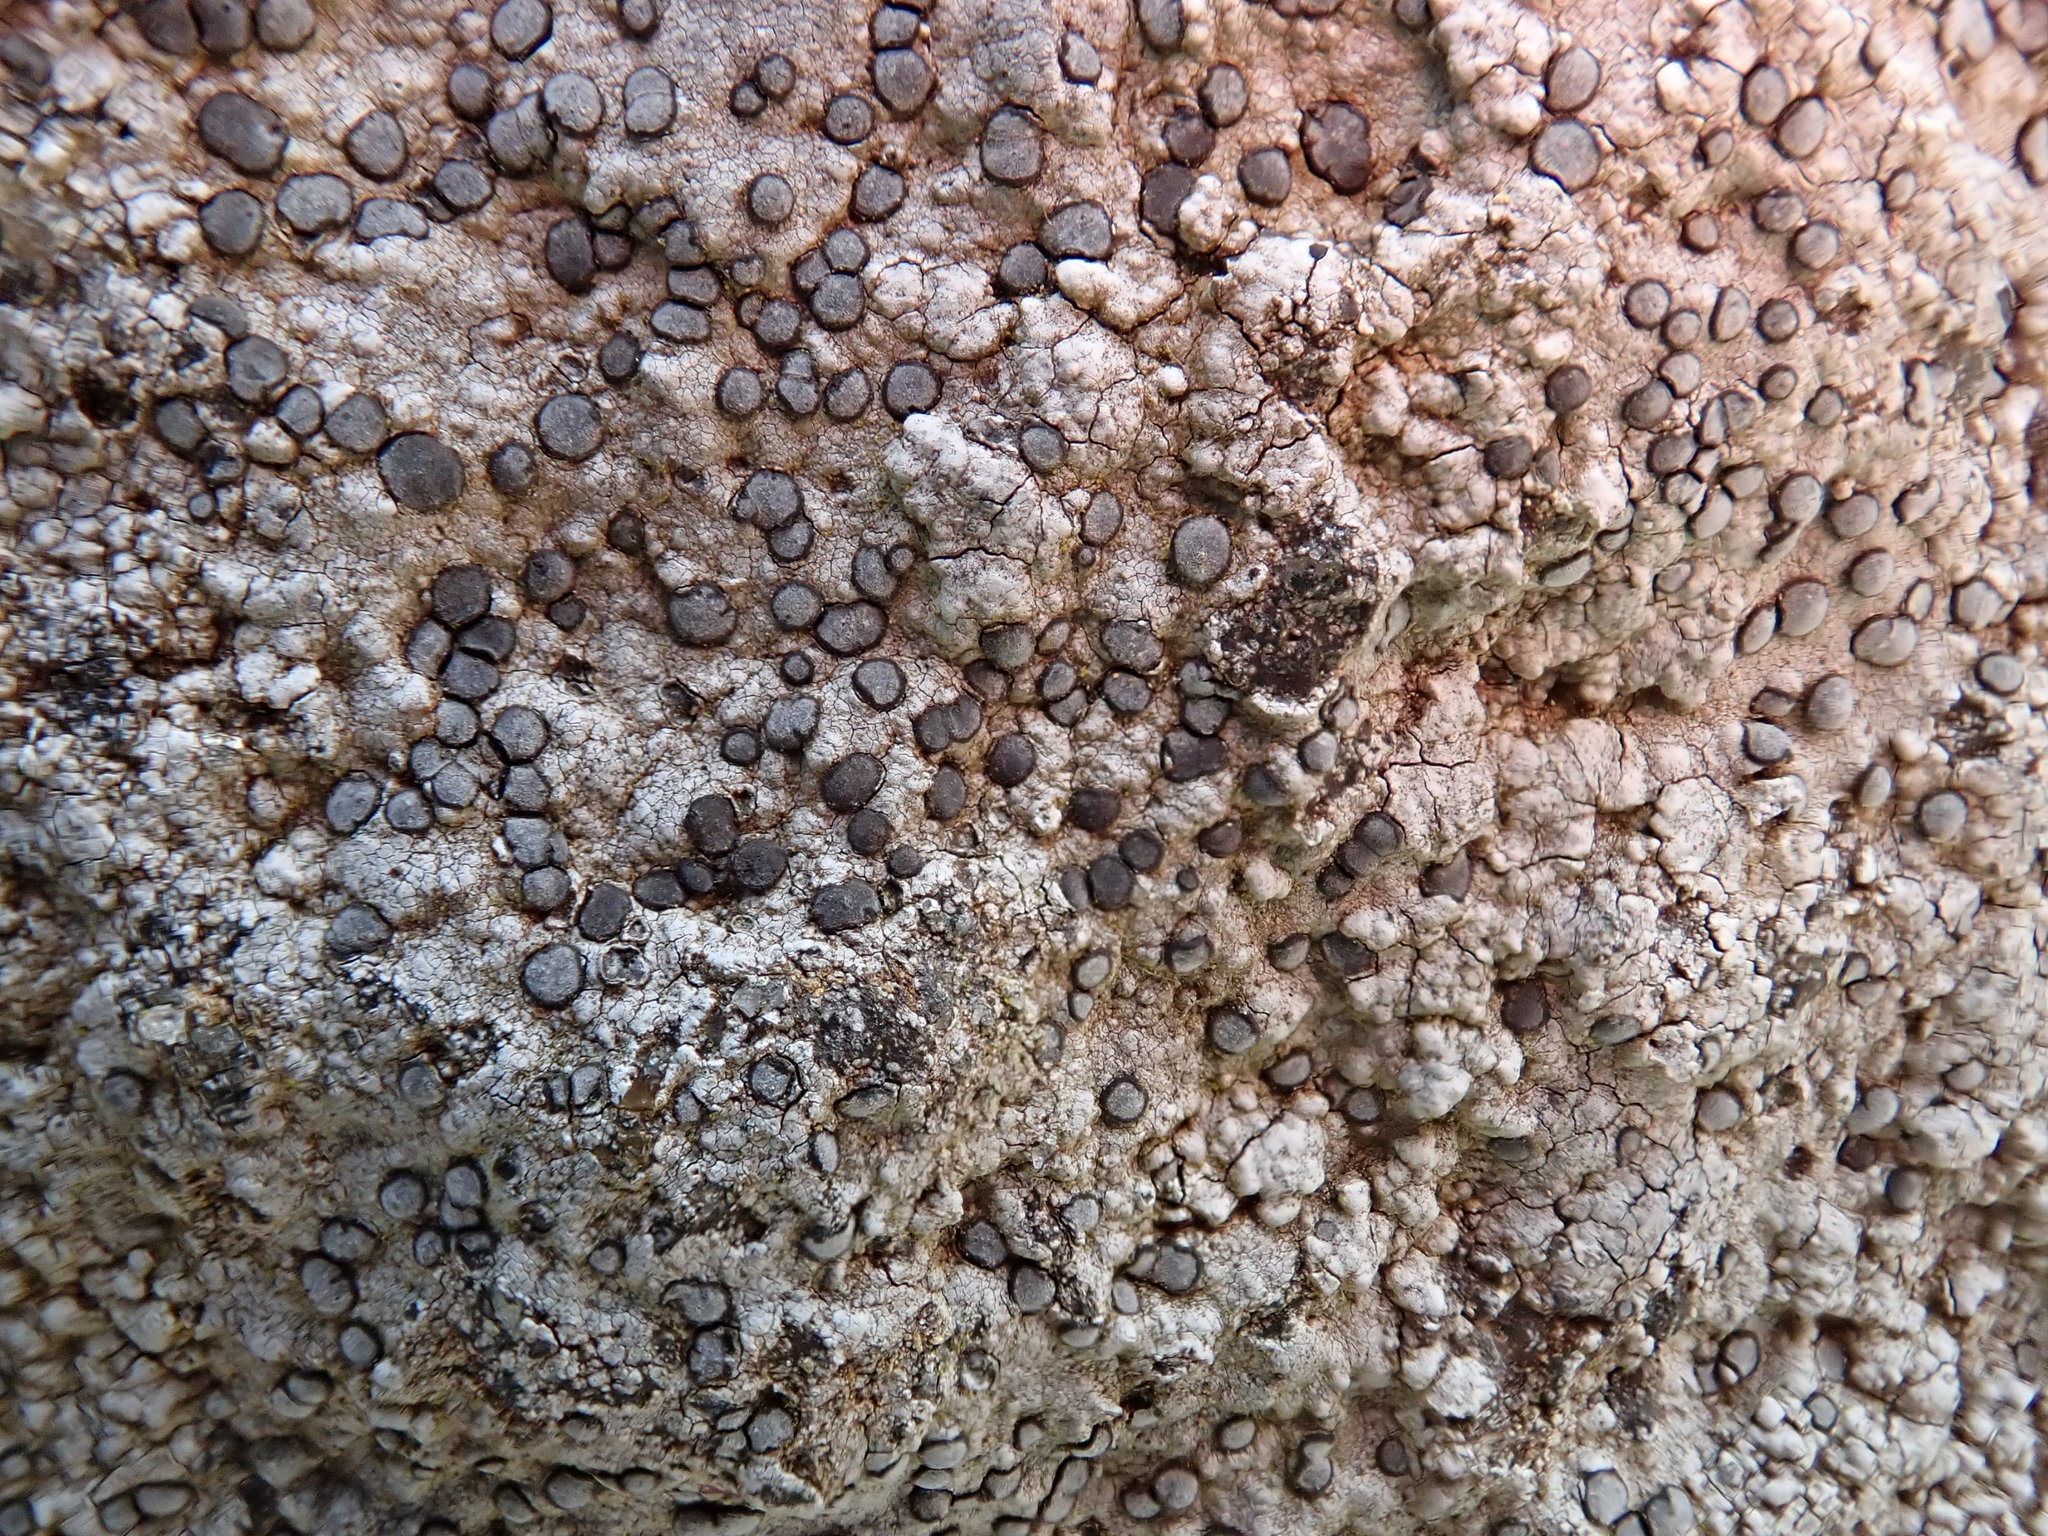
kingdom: Fungi
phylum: Ascomycota
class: Lecanoromycetes
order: Lecideales
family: Lecideaceae
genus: Porpidia
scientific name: Porpidia albocaerulescens
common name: Smokey-eyed boulder lichen
